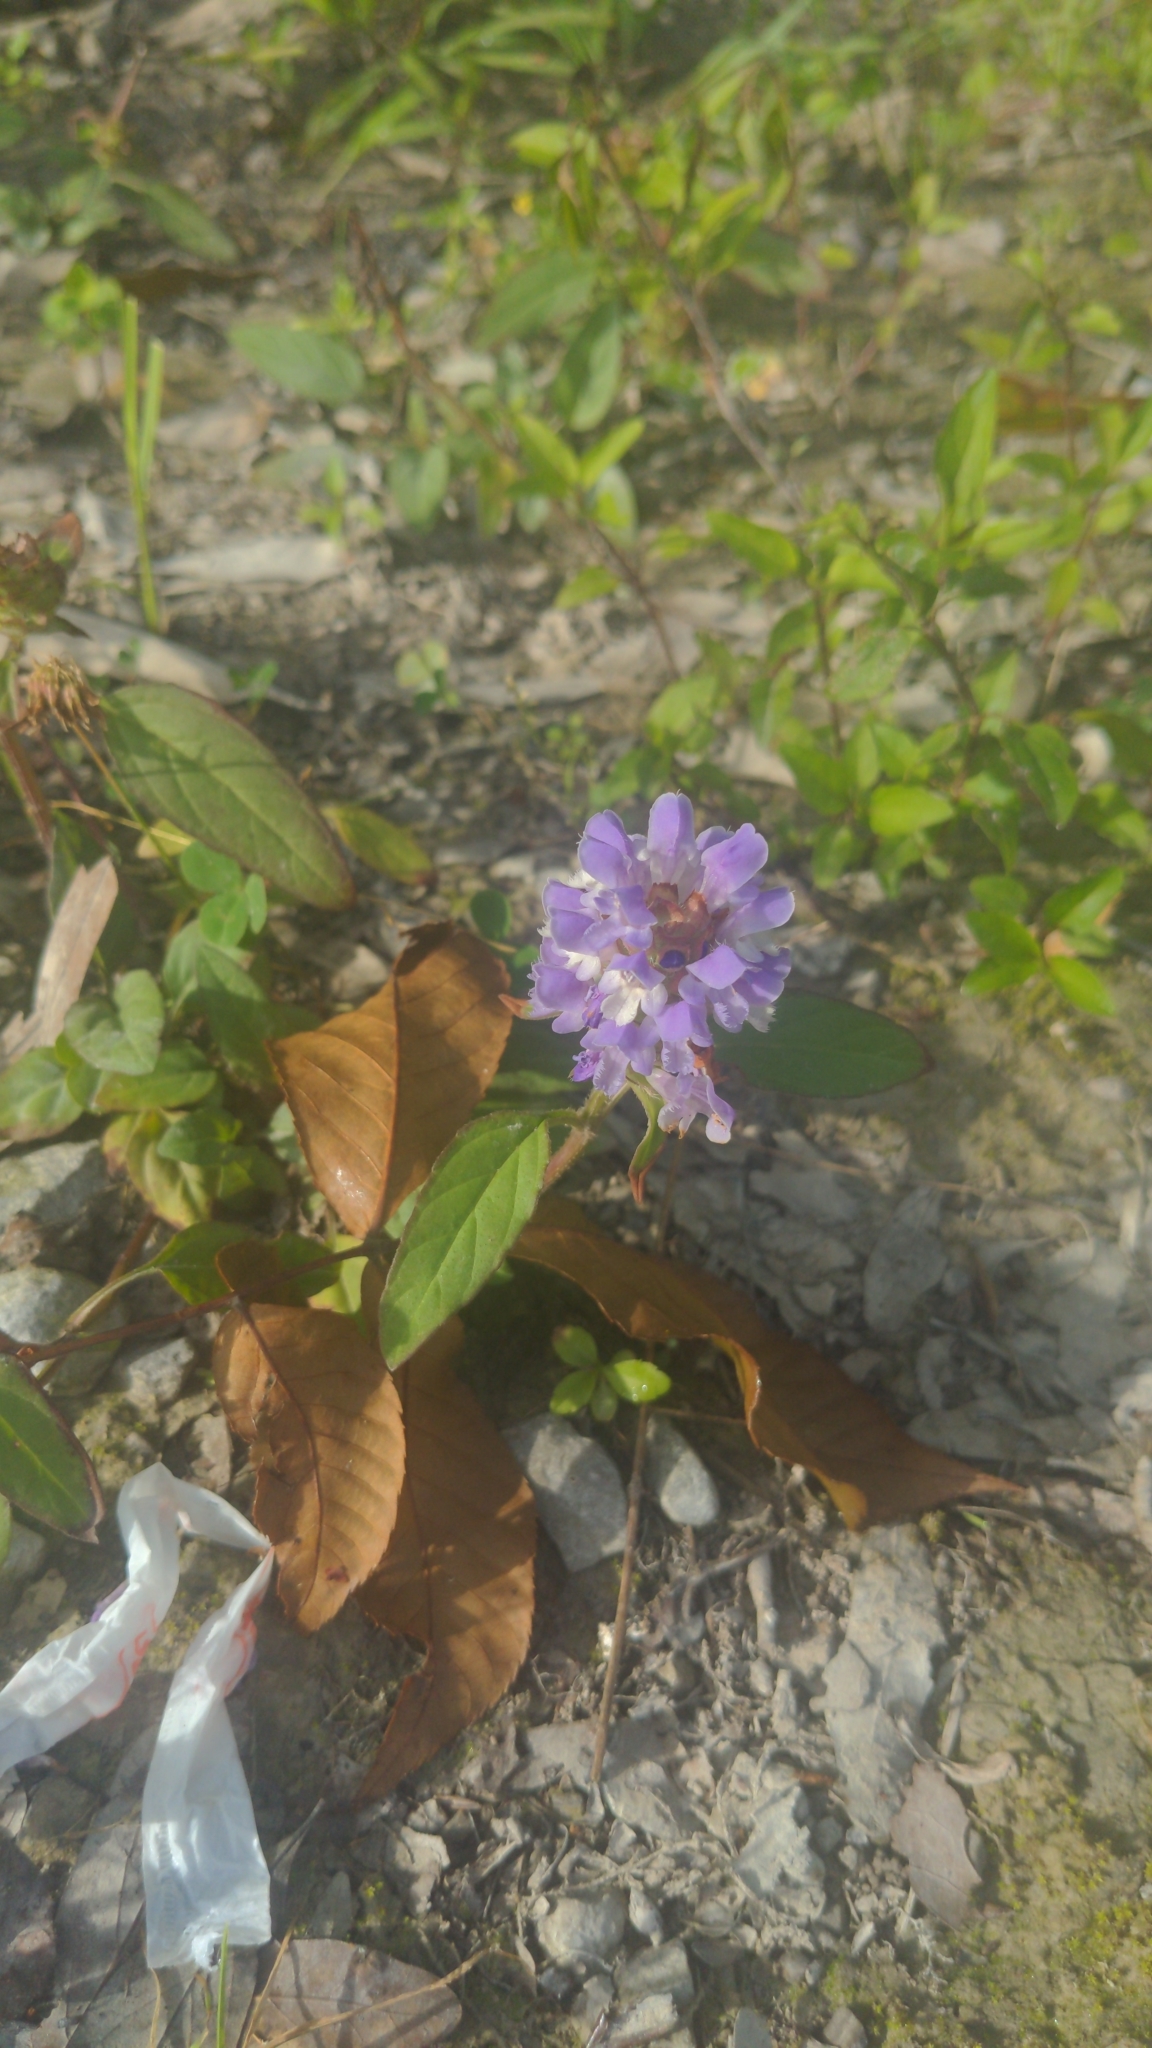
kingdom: Plantae
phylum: Tracheophyta
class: Magnoliopsida
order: Lamiales
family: Lamiaceae
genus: Prunella
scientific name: Prunella vulgaris
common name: Heal-all
